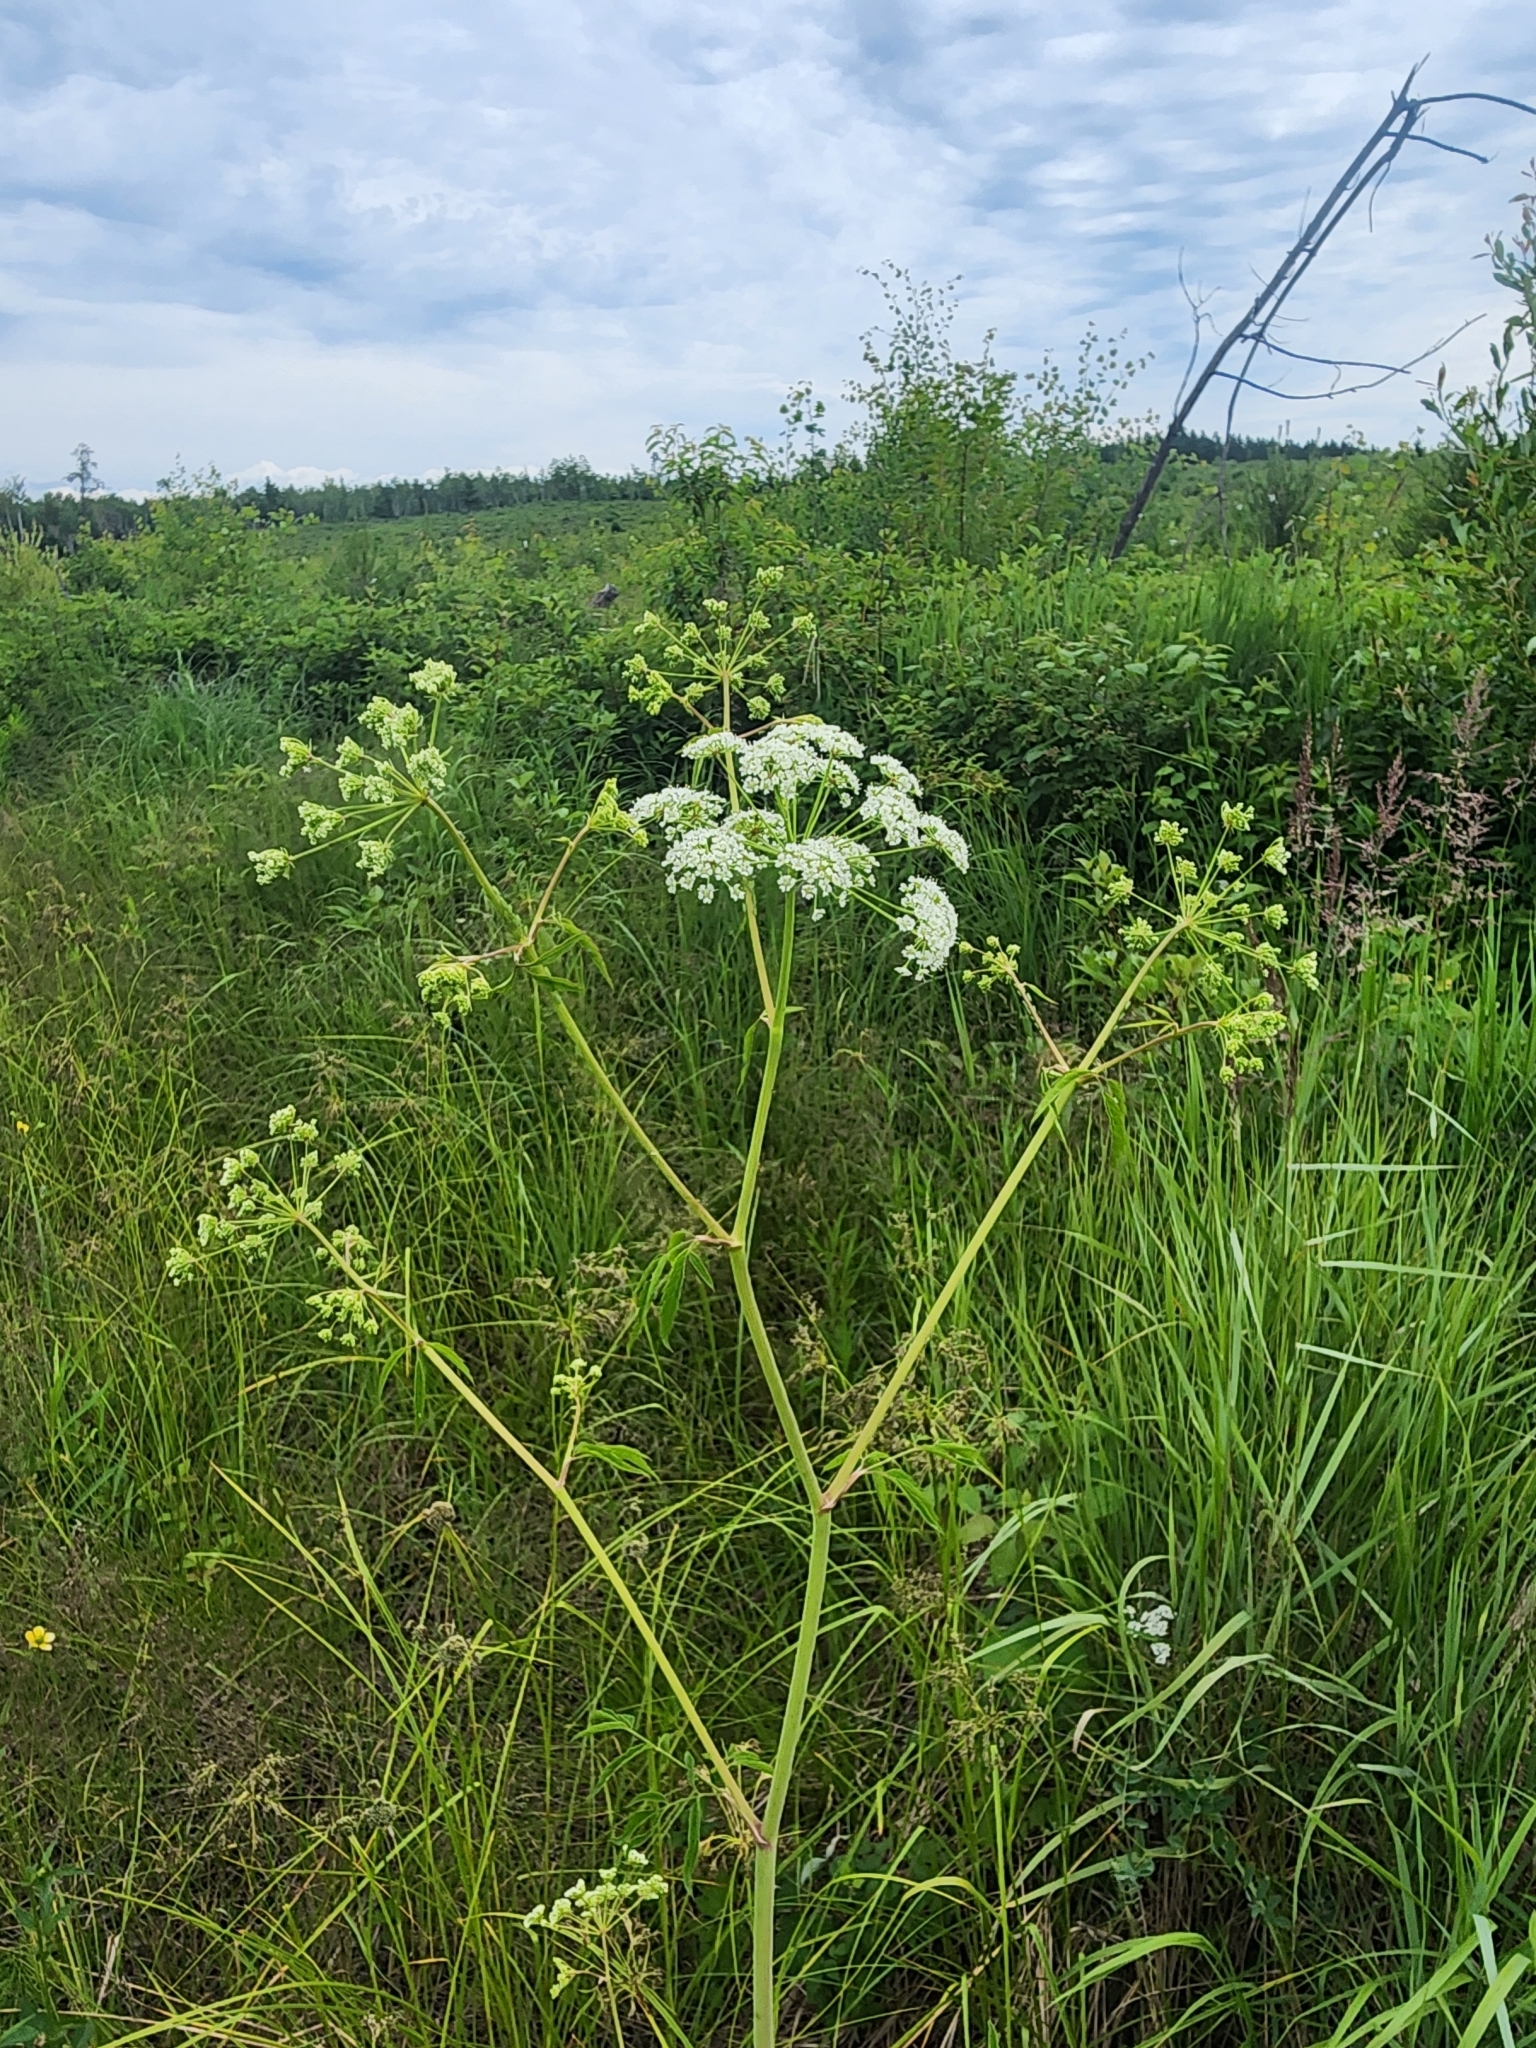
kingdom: Plantae
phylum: Tracheophyta
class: Magnoliopsida
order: Apiales
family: Apiaceae
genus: Cicuta
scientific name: Cicuta maculata
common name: Spotted cowbane
